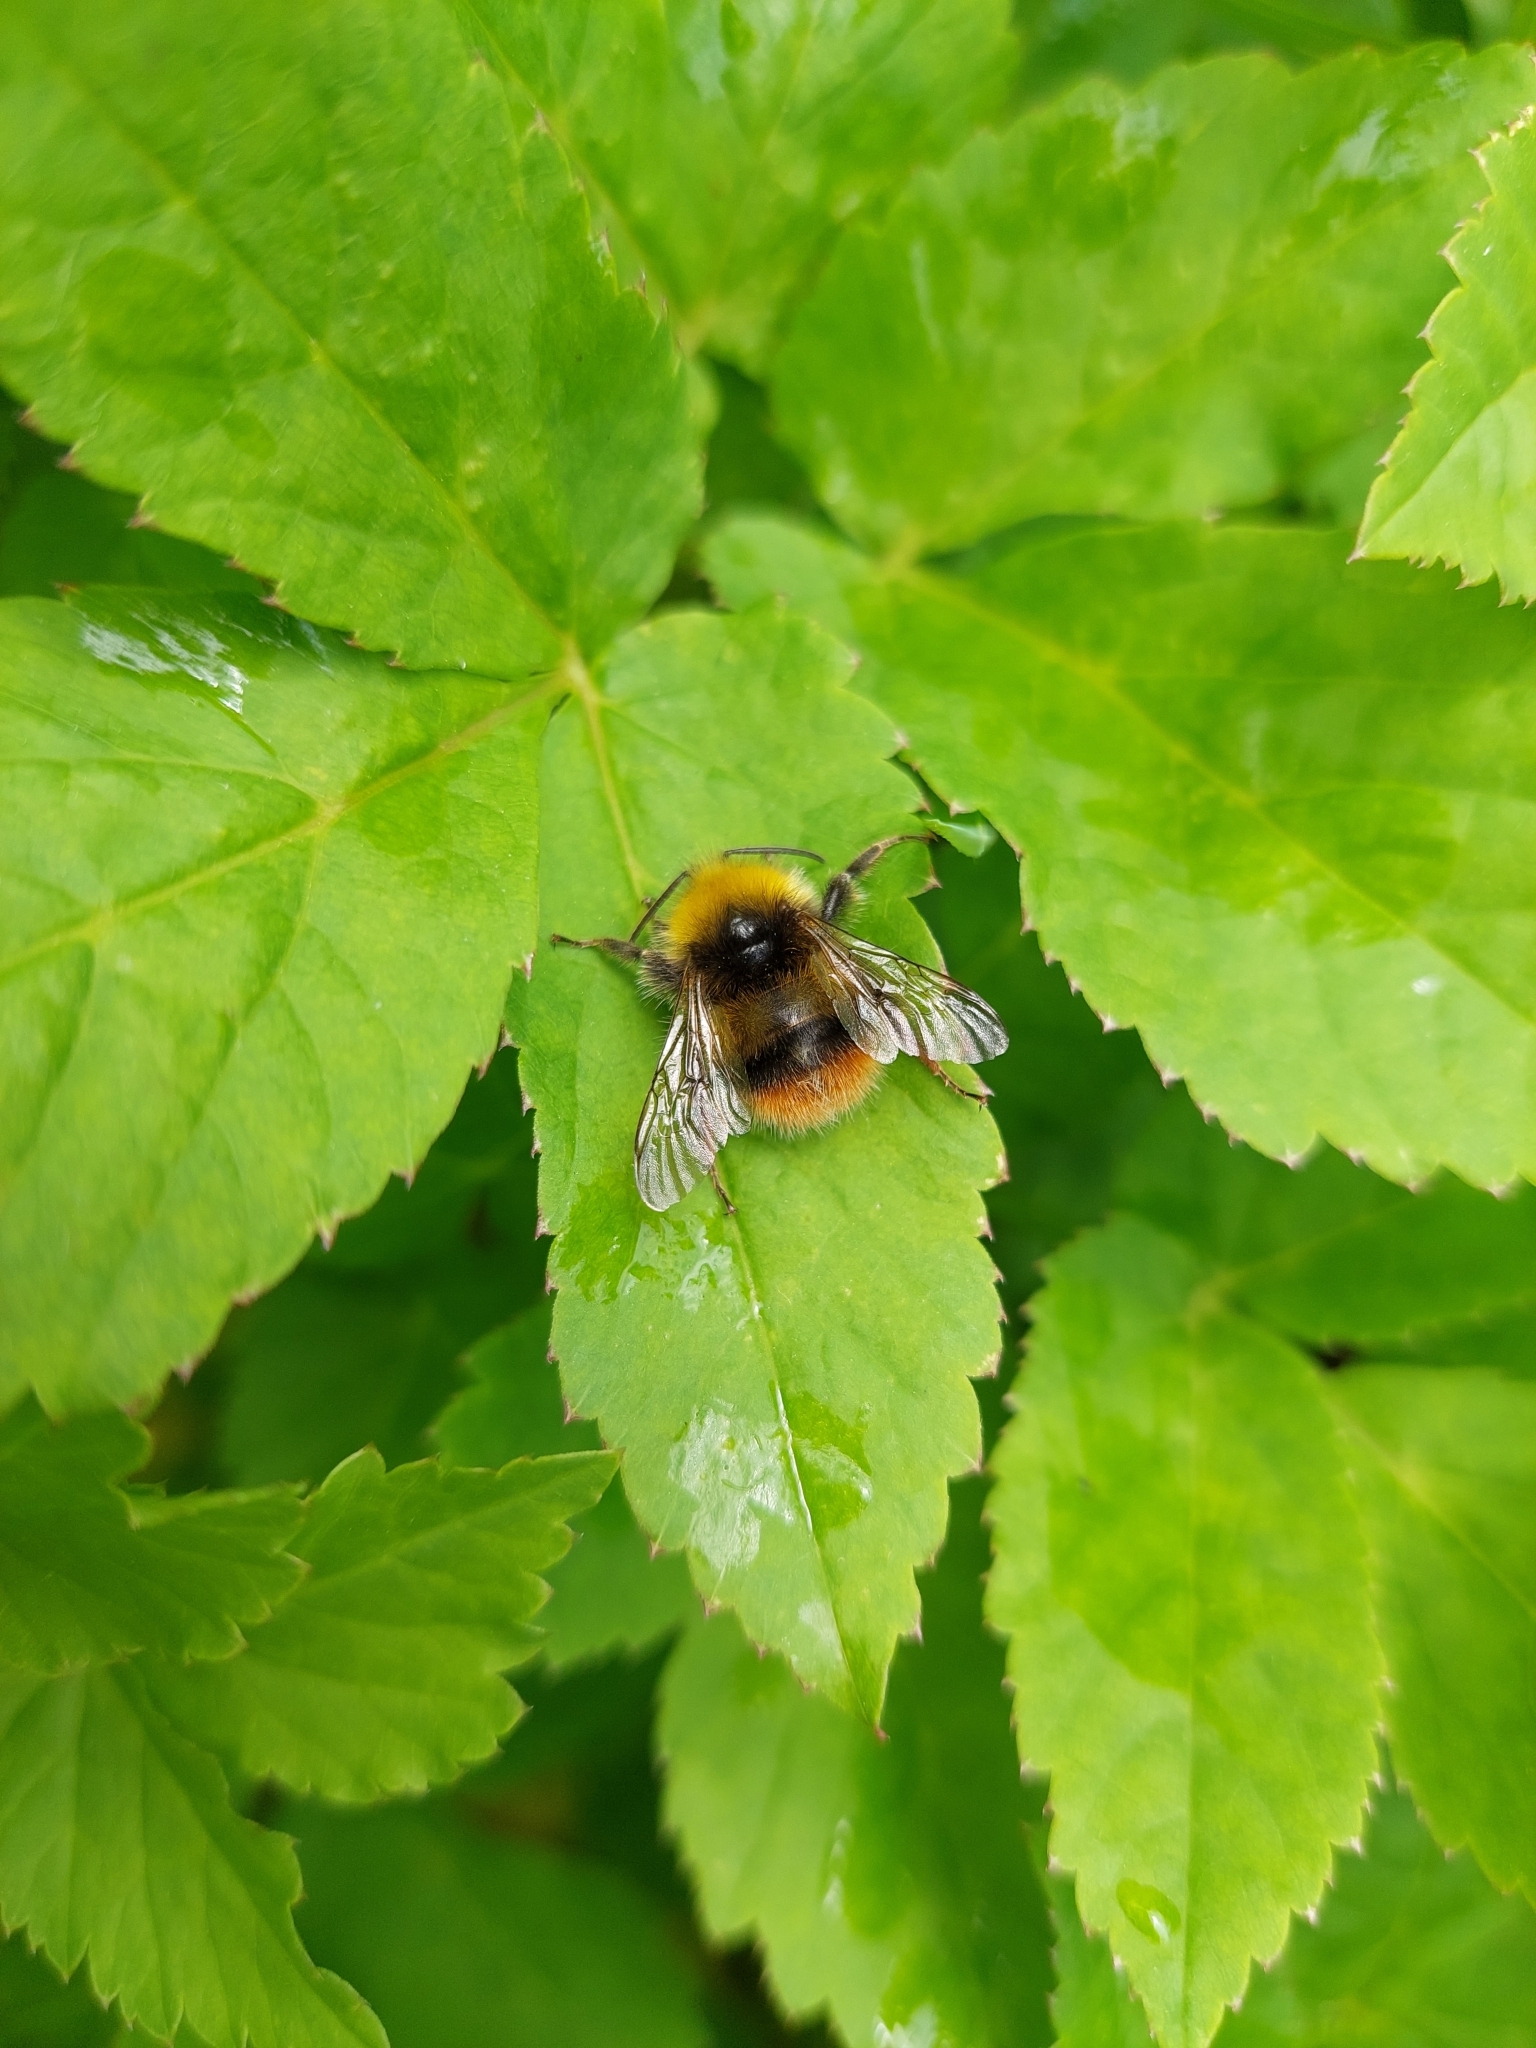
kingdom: Animalia
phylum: Arthropoda
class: Insecta
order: Hymenoptera
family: Apidae
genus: Bombus
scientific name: Bombus pratorum
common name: Early humble-bee
